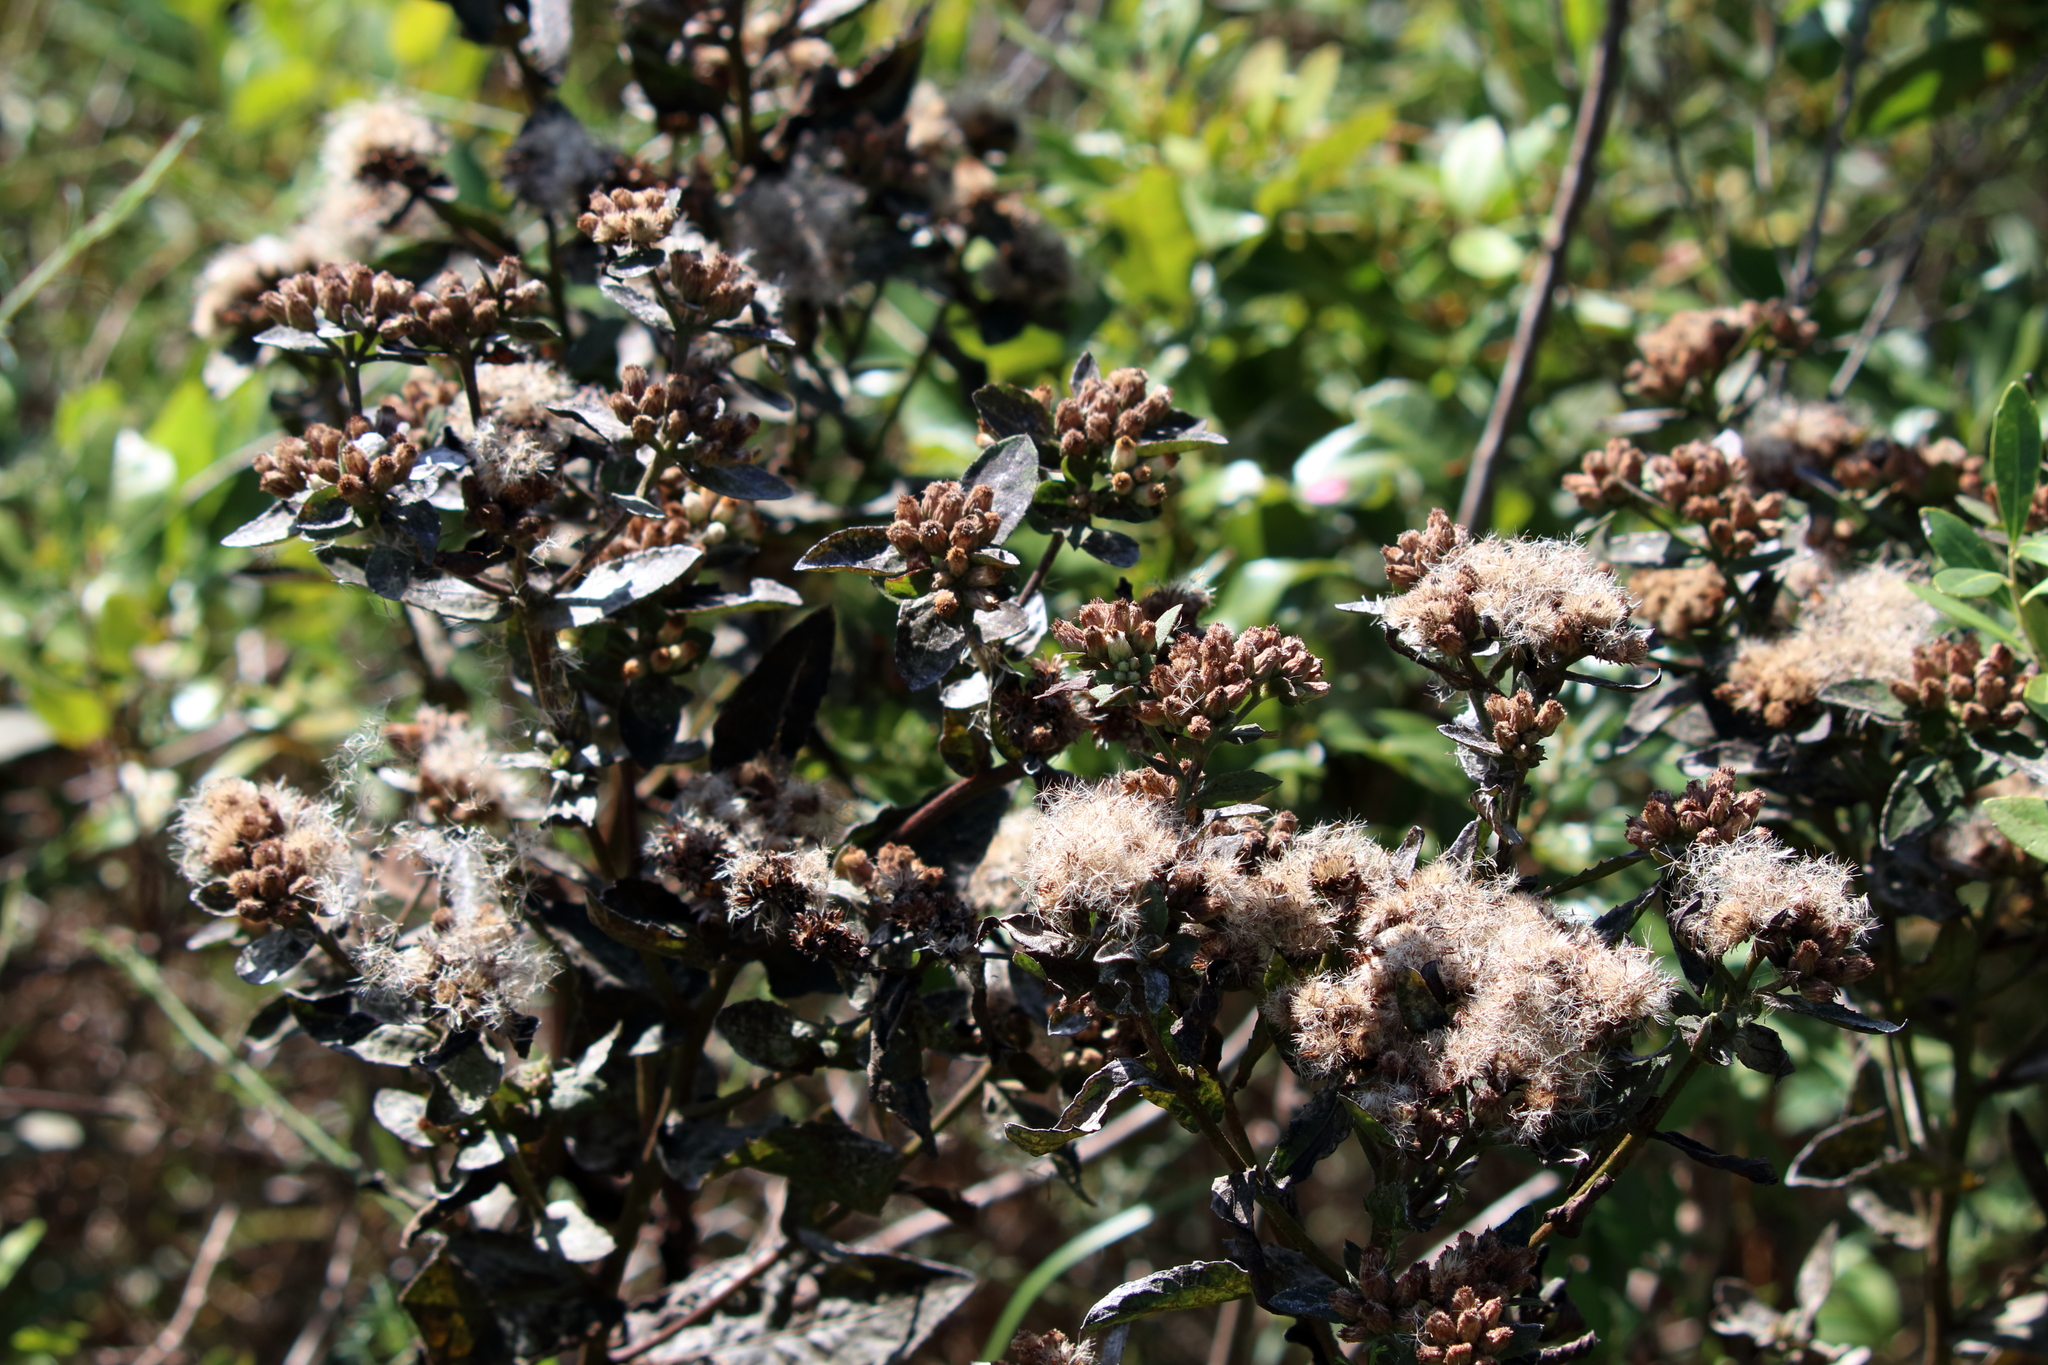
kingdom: Plantae
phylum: Tracheophyta
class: Magnoliopsida
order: Asterales
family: Asteraceae
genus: Pluchea
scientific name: Pluchea foetida
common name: Stinking camphorweed
